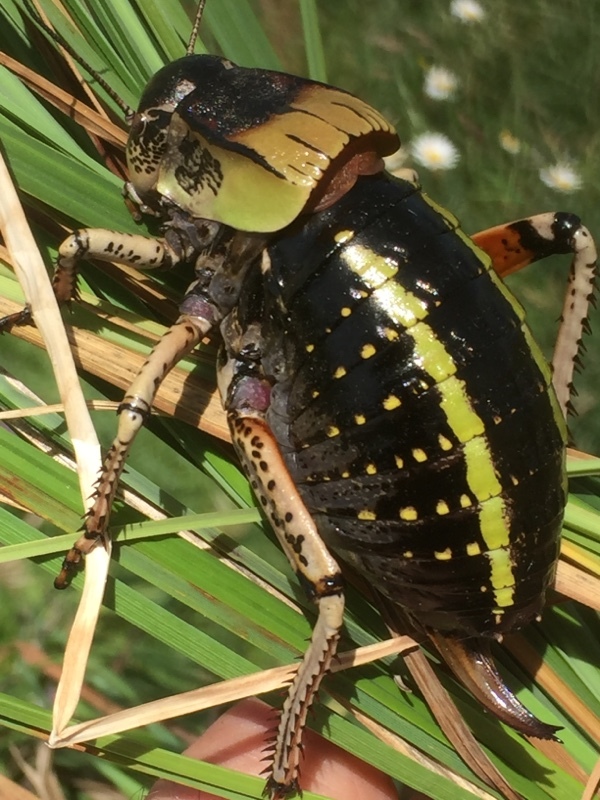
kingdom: Animalia
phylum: Arthropoda
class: Insecta
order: Orthoptera
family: Tettigoniidae
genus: Bradyporus
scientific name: Bradyporus latipes
